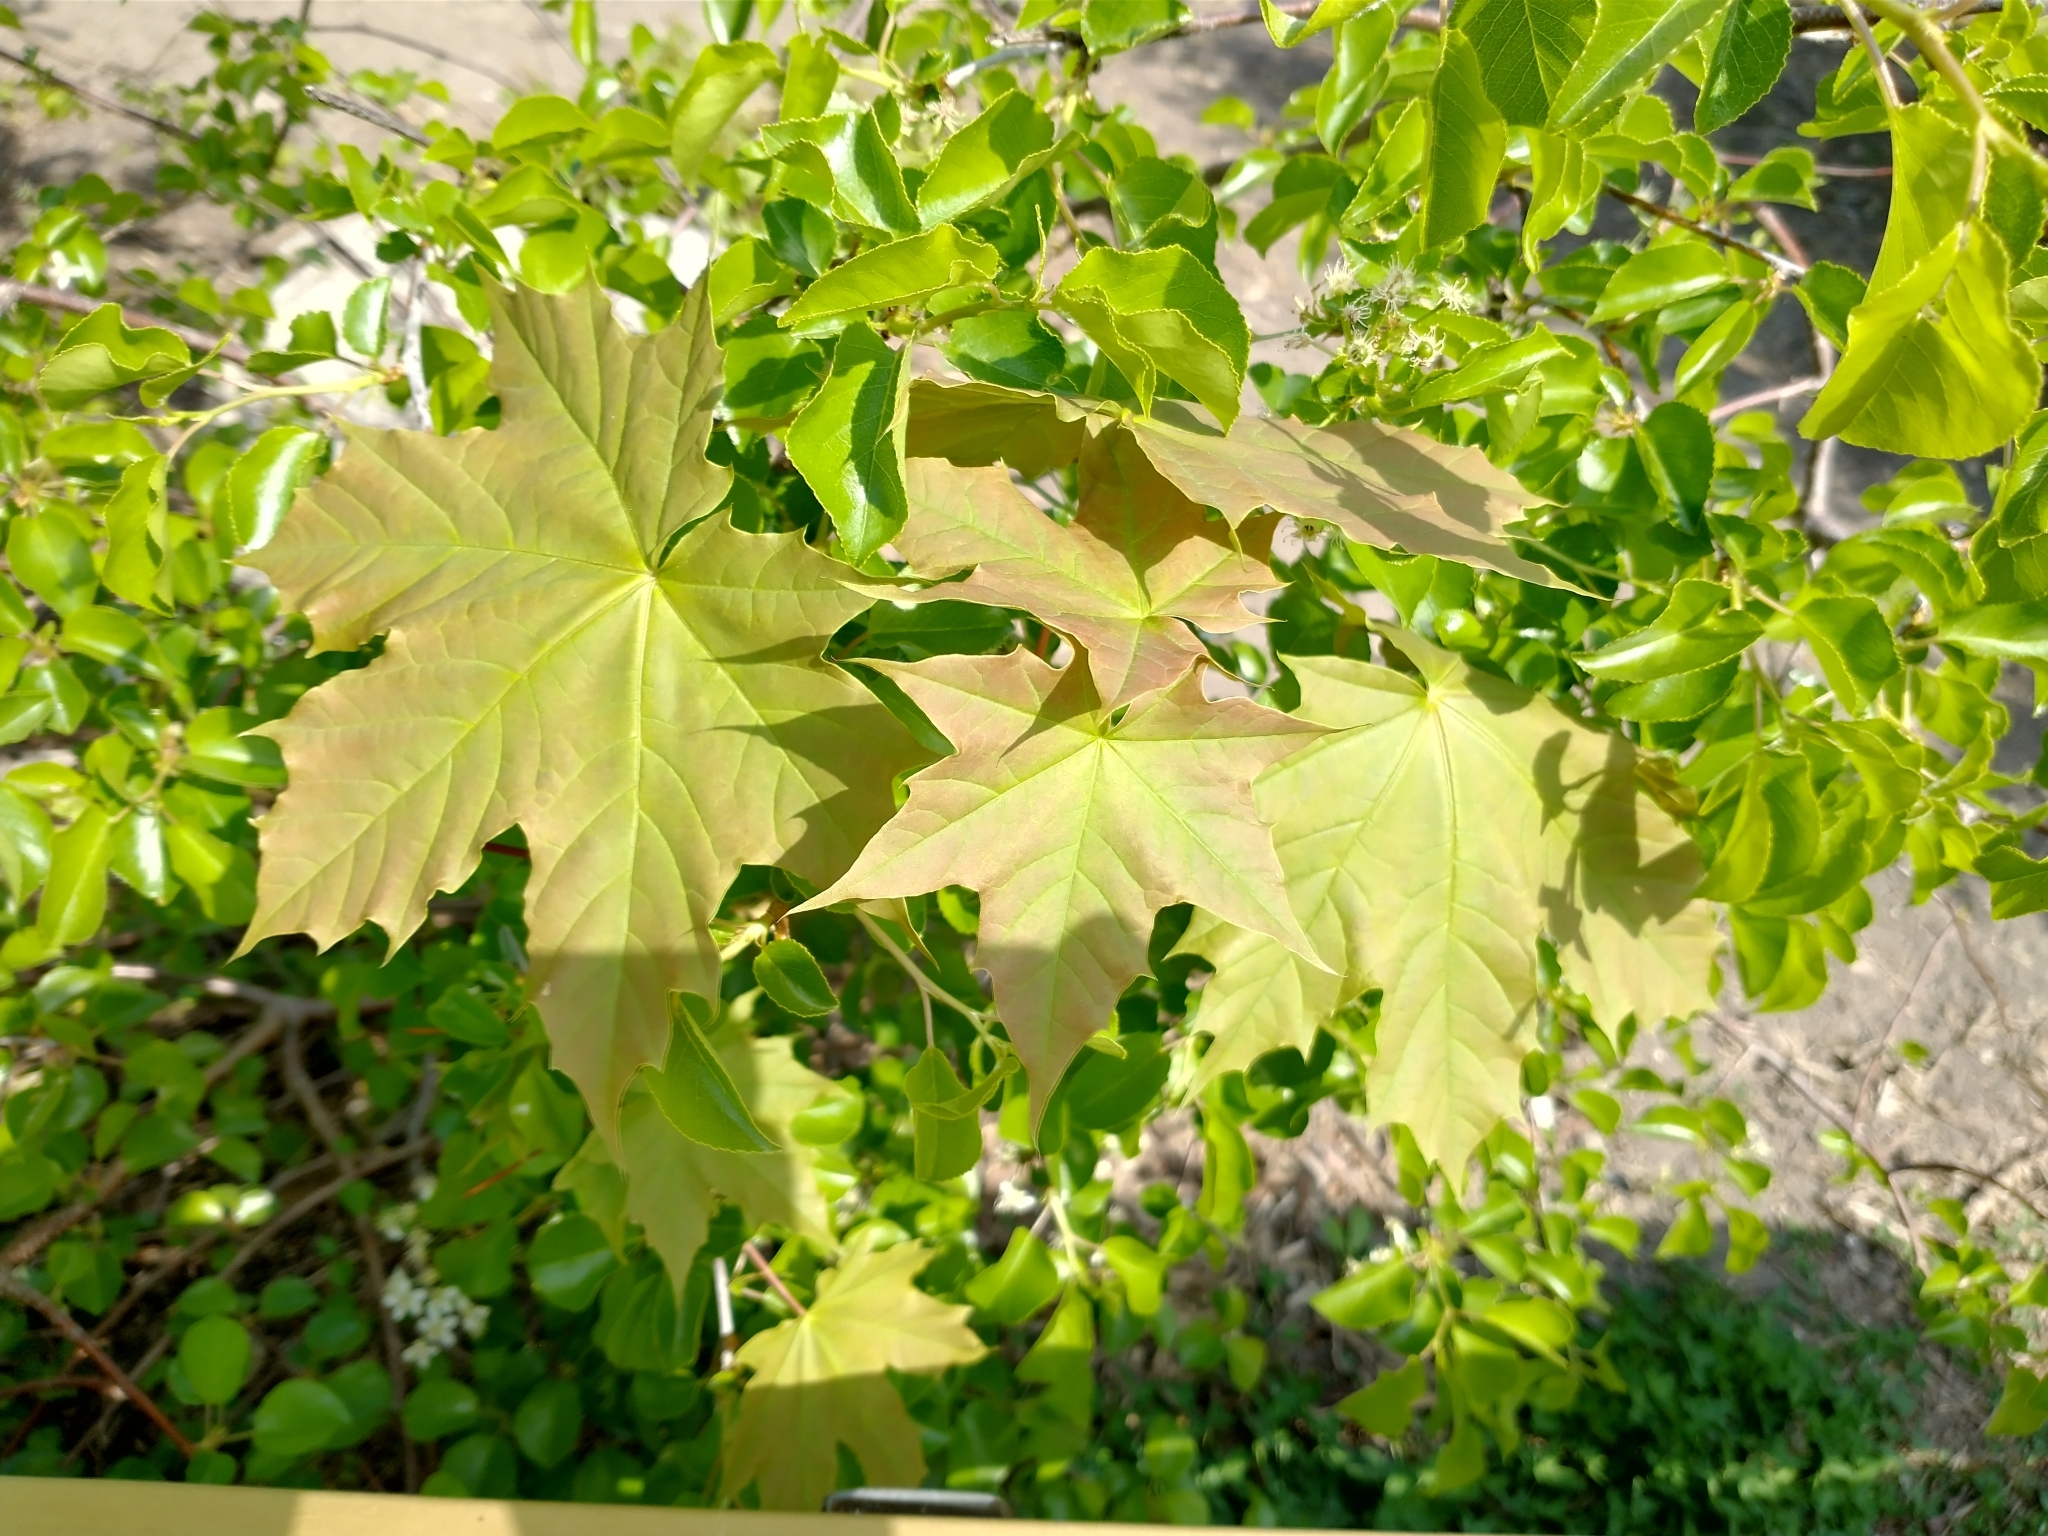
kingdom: Plantae
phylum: Tracheophyta
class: Magnoliopsida
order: Sapindales
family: Sapindaceae
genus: Acer
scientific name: Acer platanoides
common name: Norway maple
